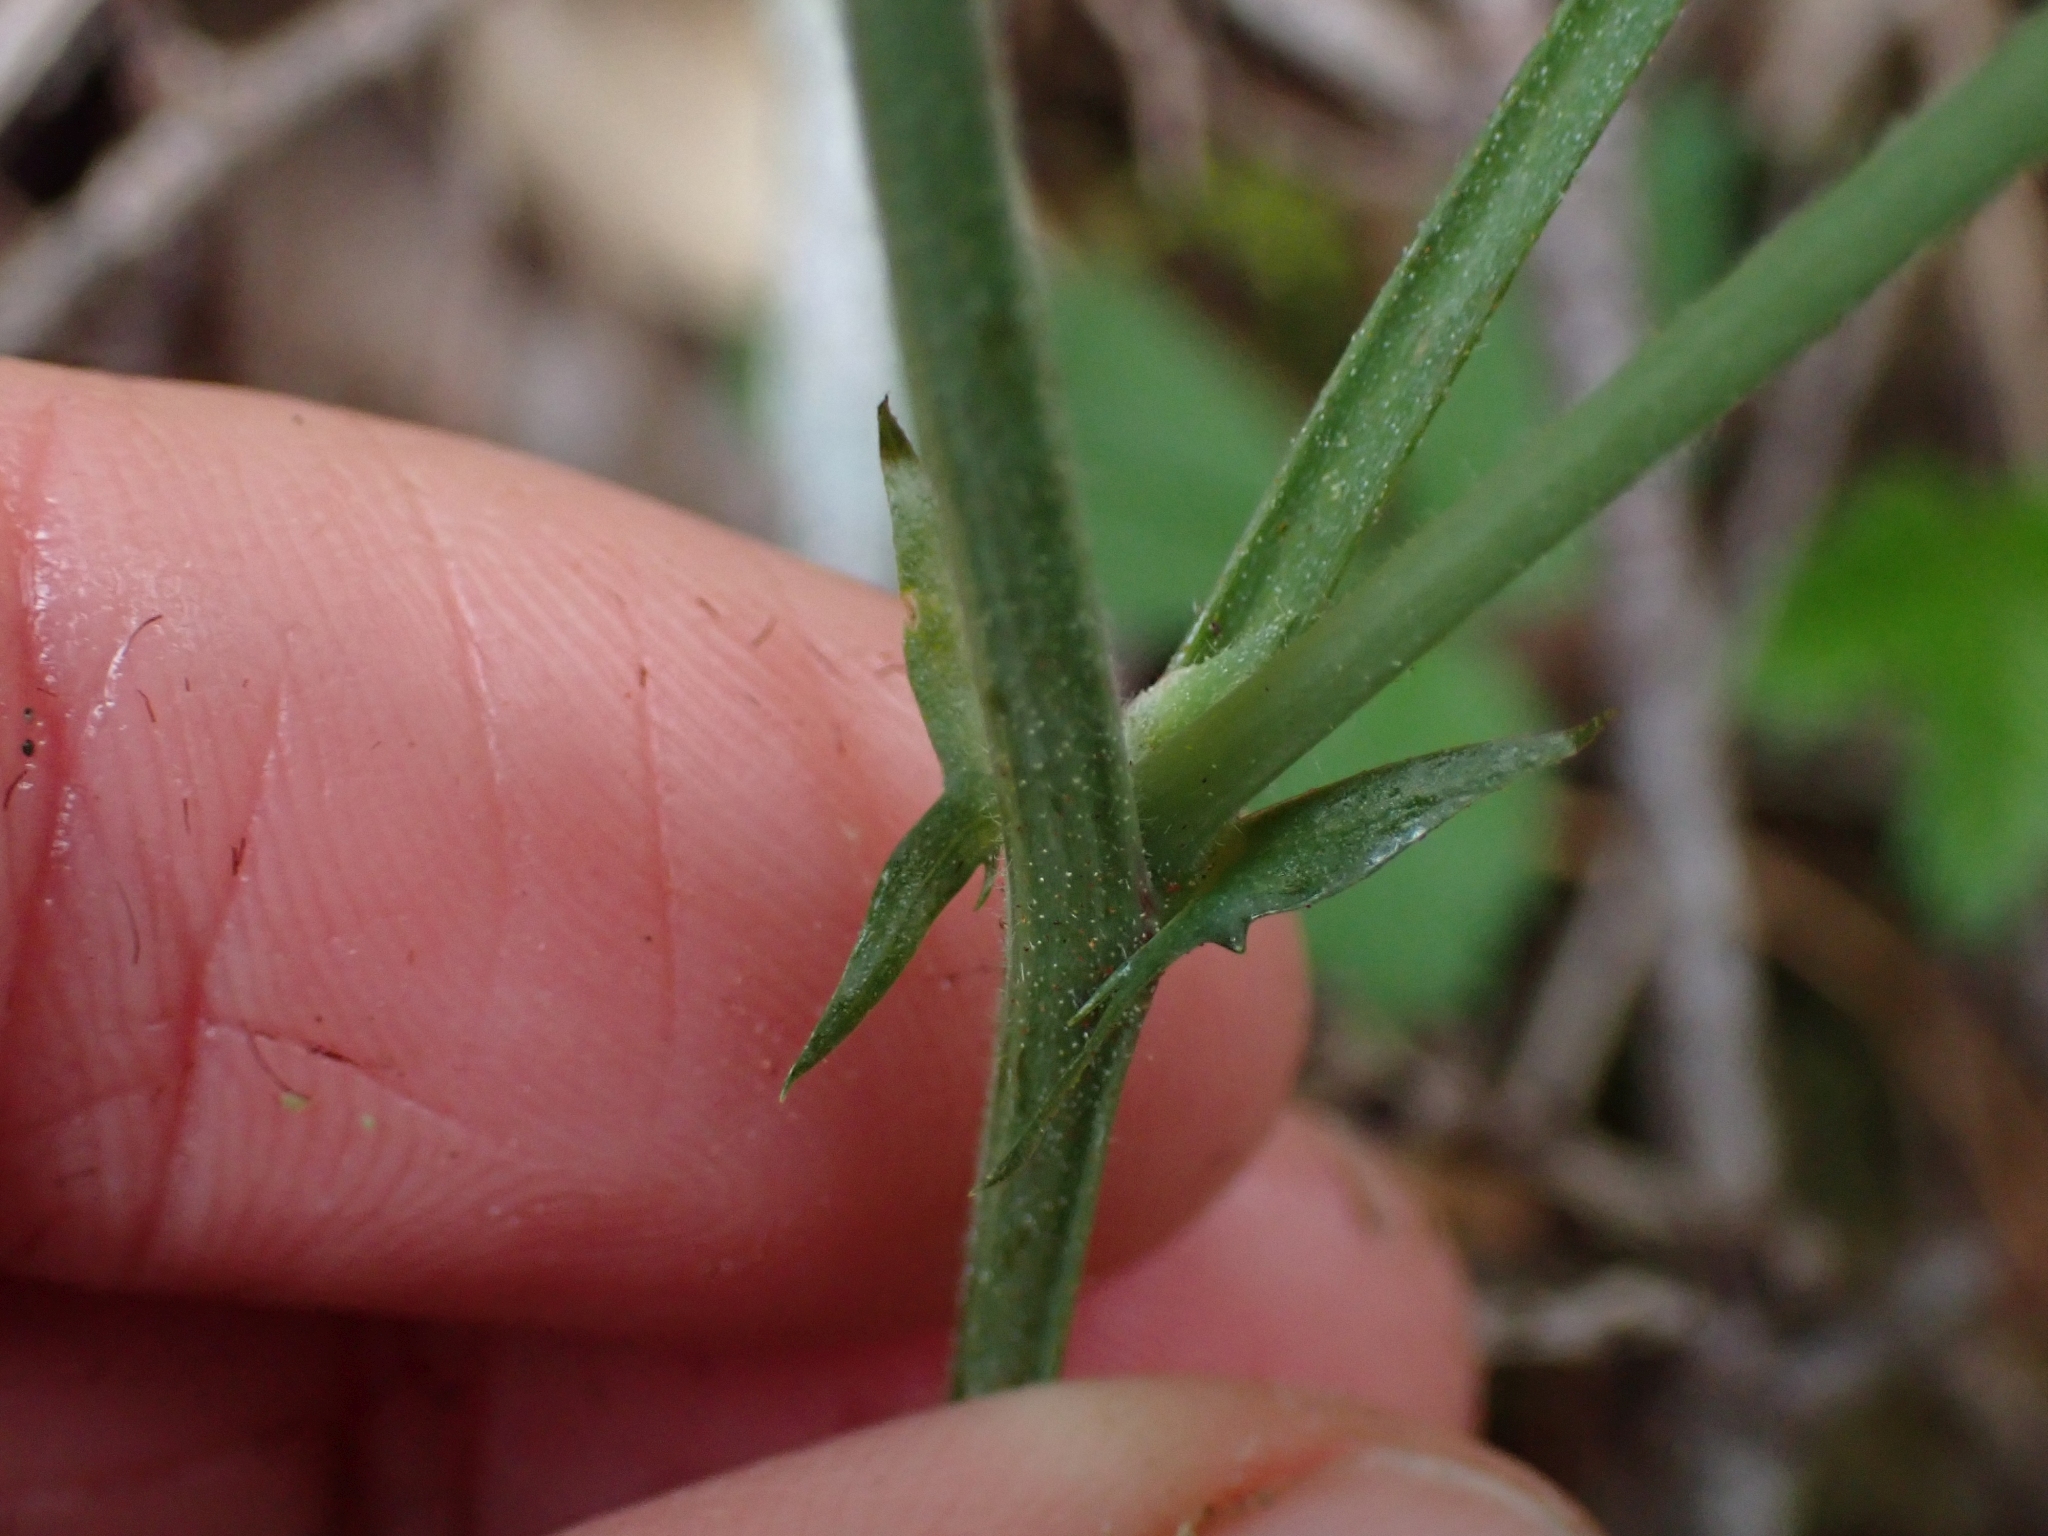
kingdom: Plantae
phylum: Tracheophyta
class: Magnoliopsida
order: Fabales
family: Fabaceae
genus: Lathyrus
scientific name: Lathyrus nevadensis
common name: Sierra nevada peavine
